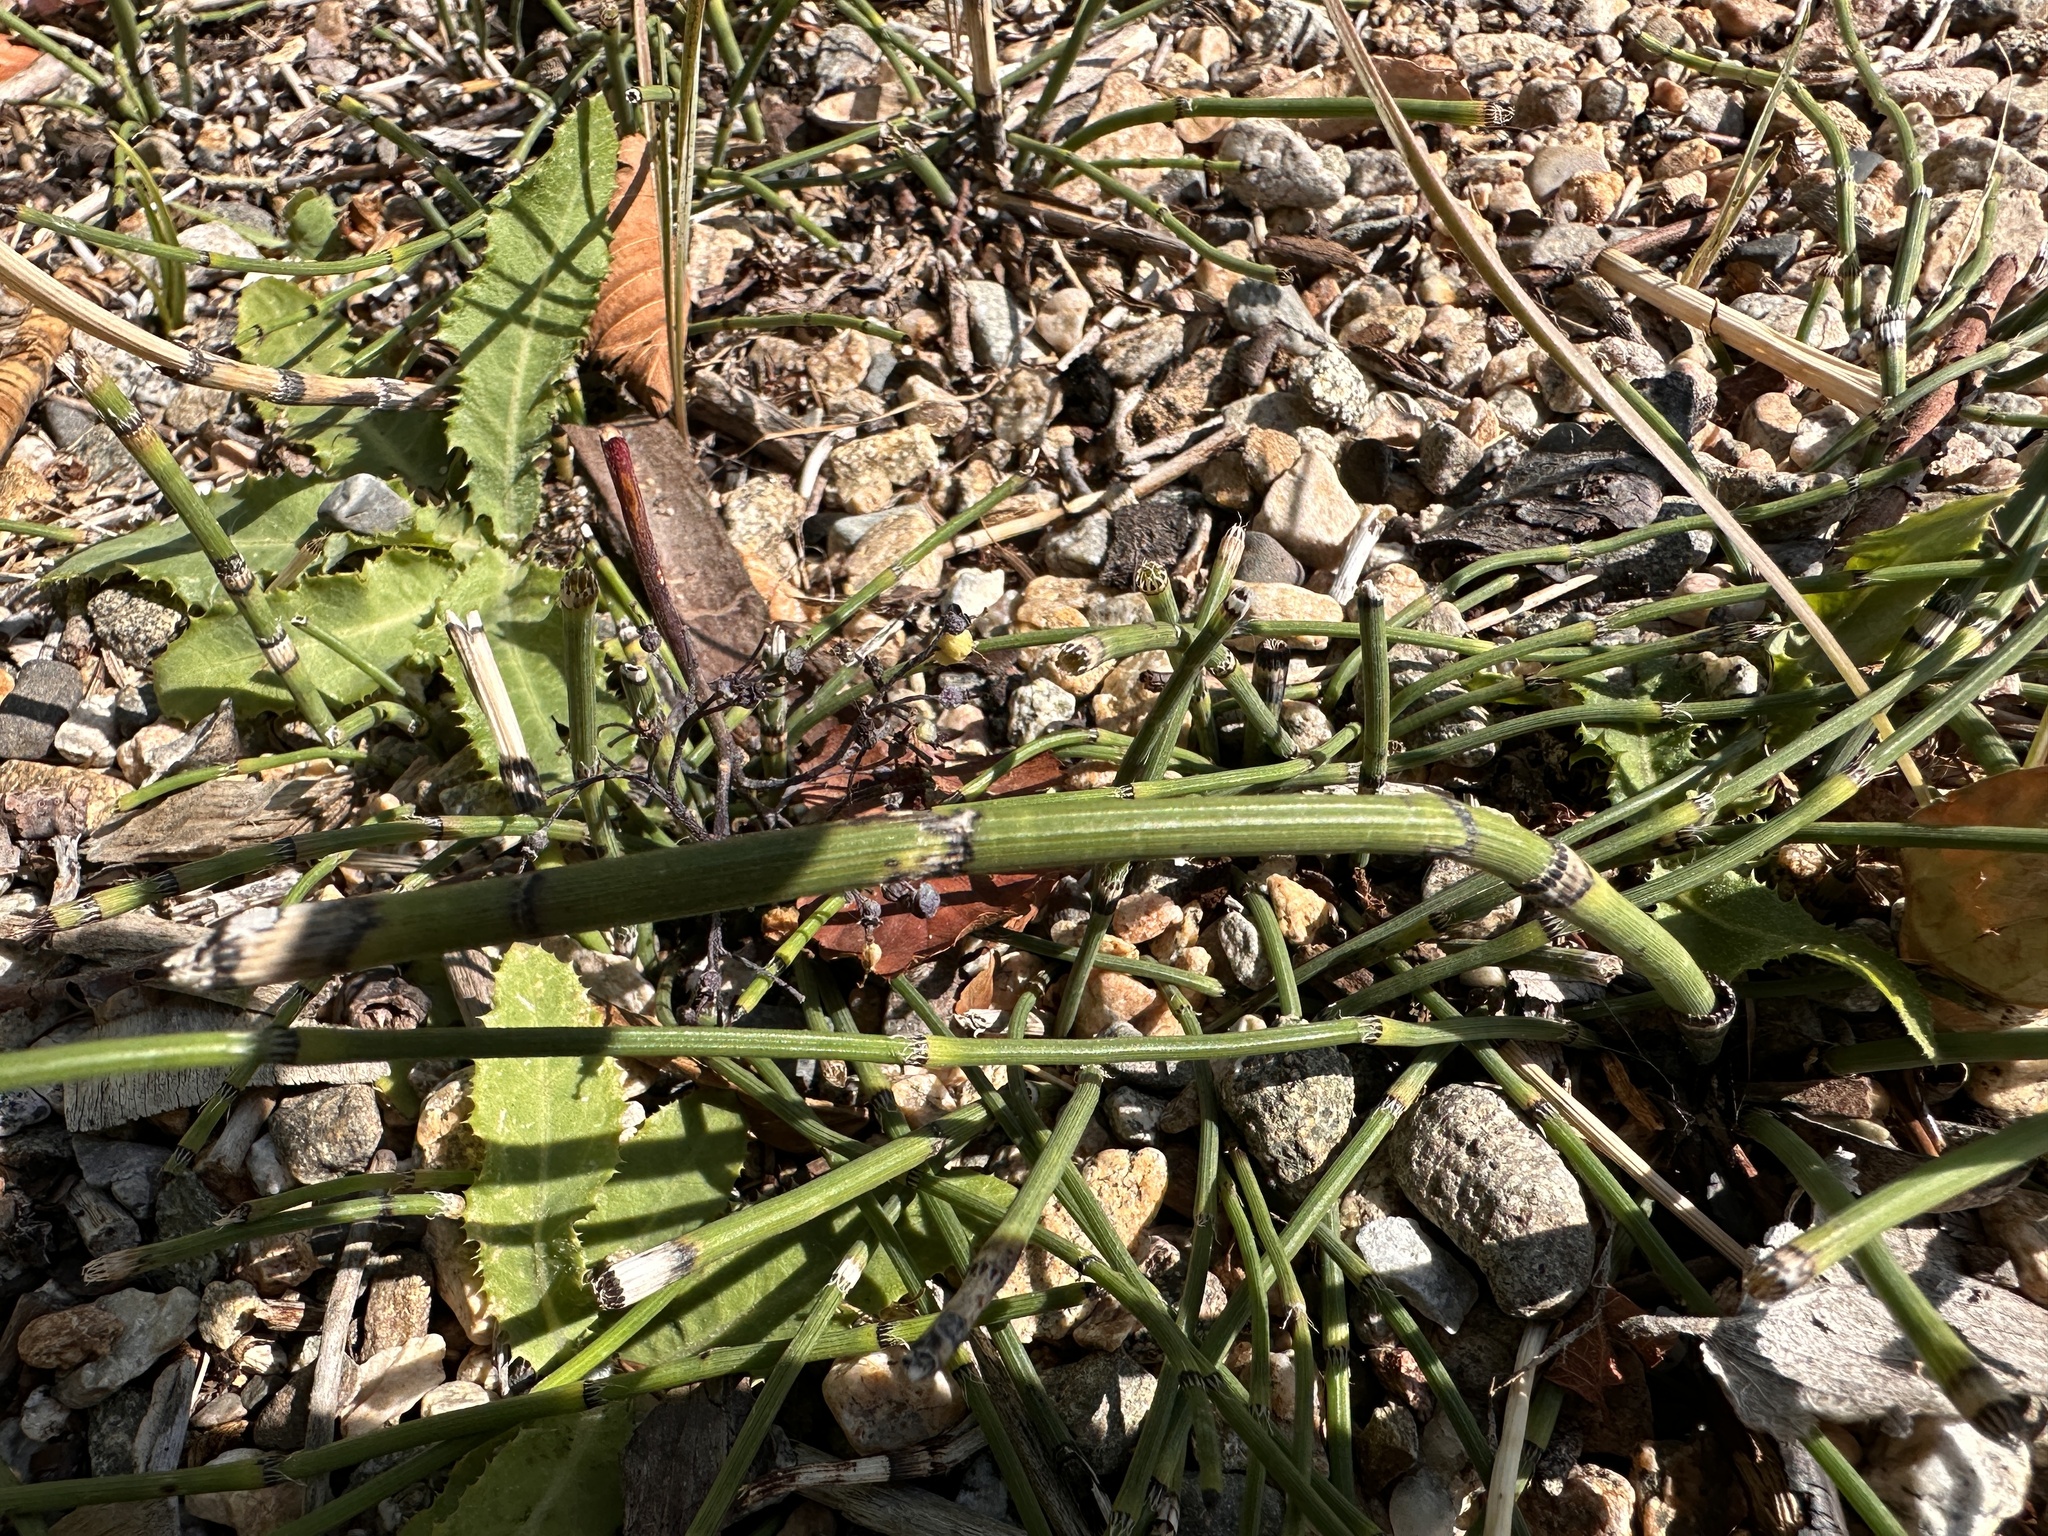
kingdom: Plantae
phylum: Tracheophyta
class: Polypodiopsida
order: Equisetales
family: Equisetaceae
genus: Equisetum
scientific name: Equisetum hyemale
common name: Rough horsetail
